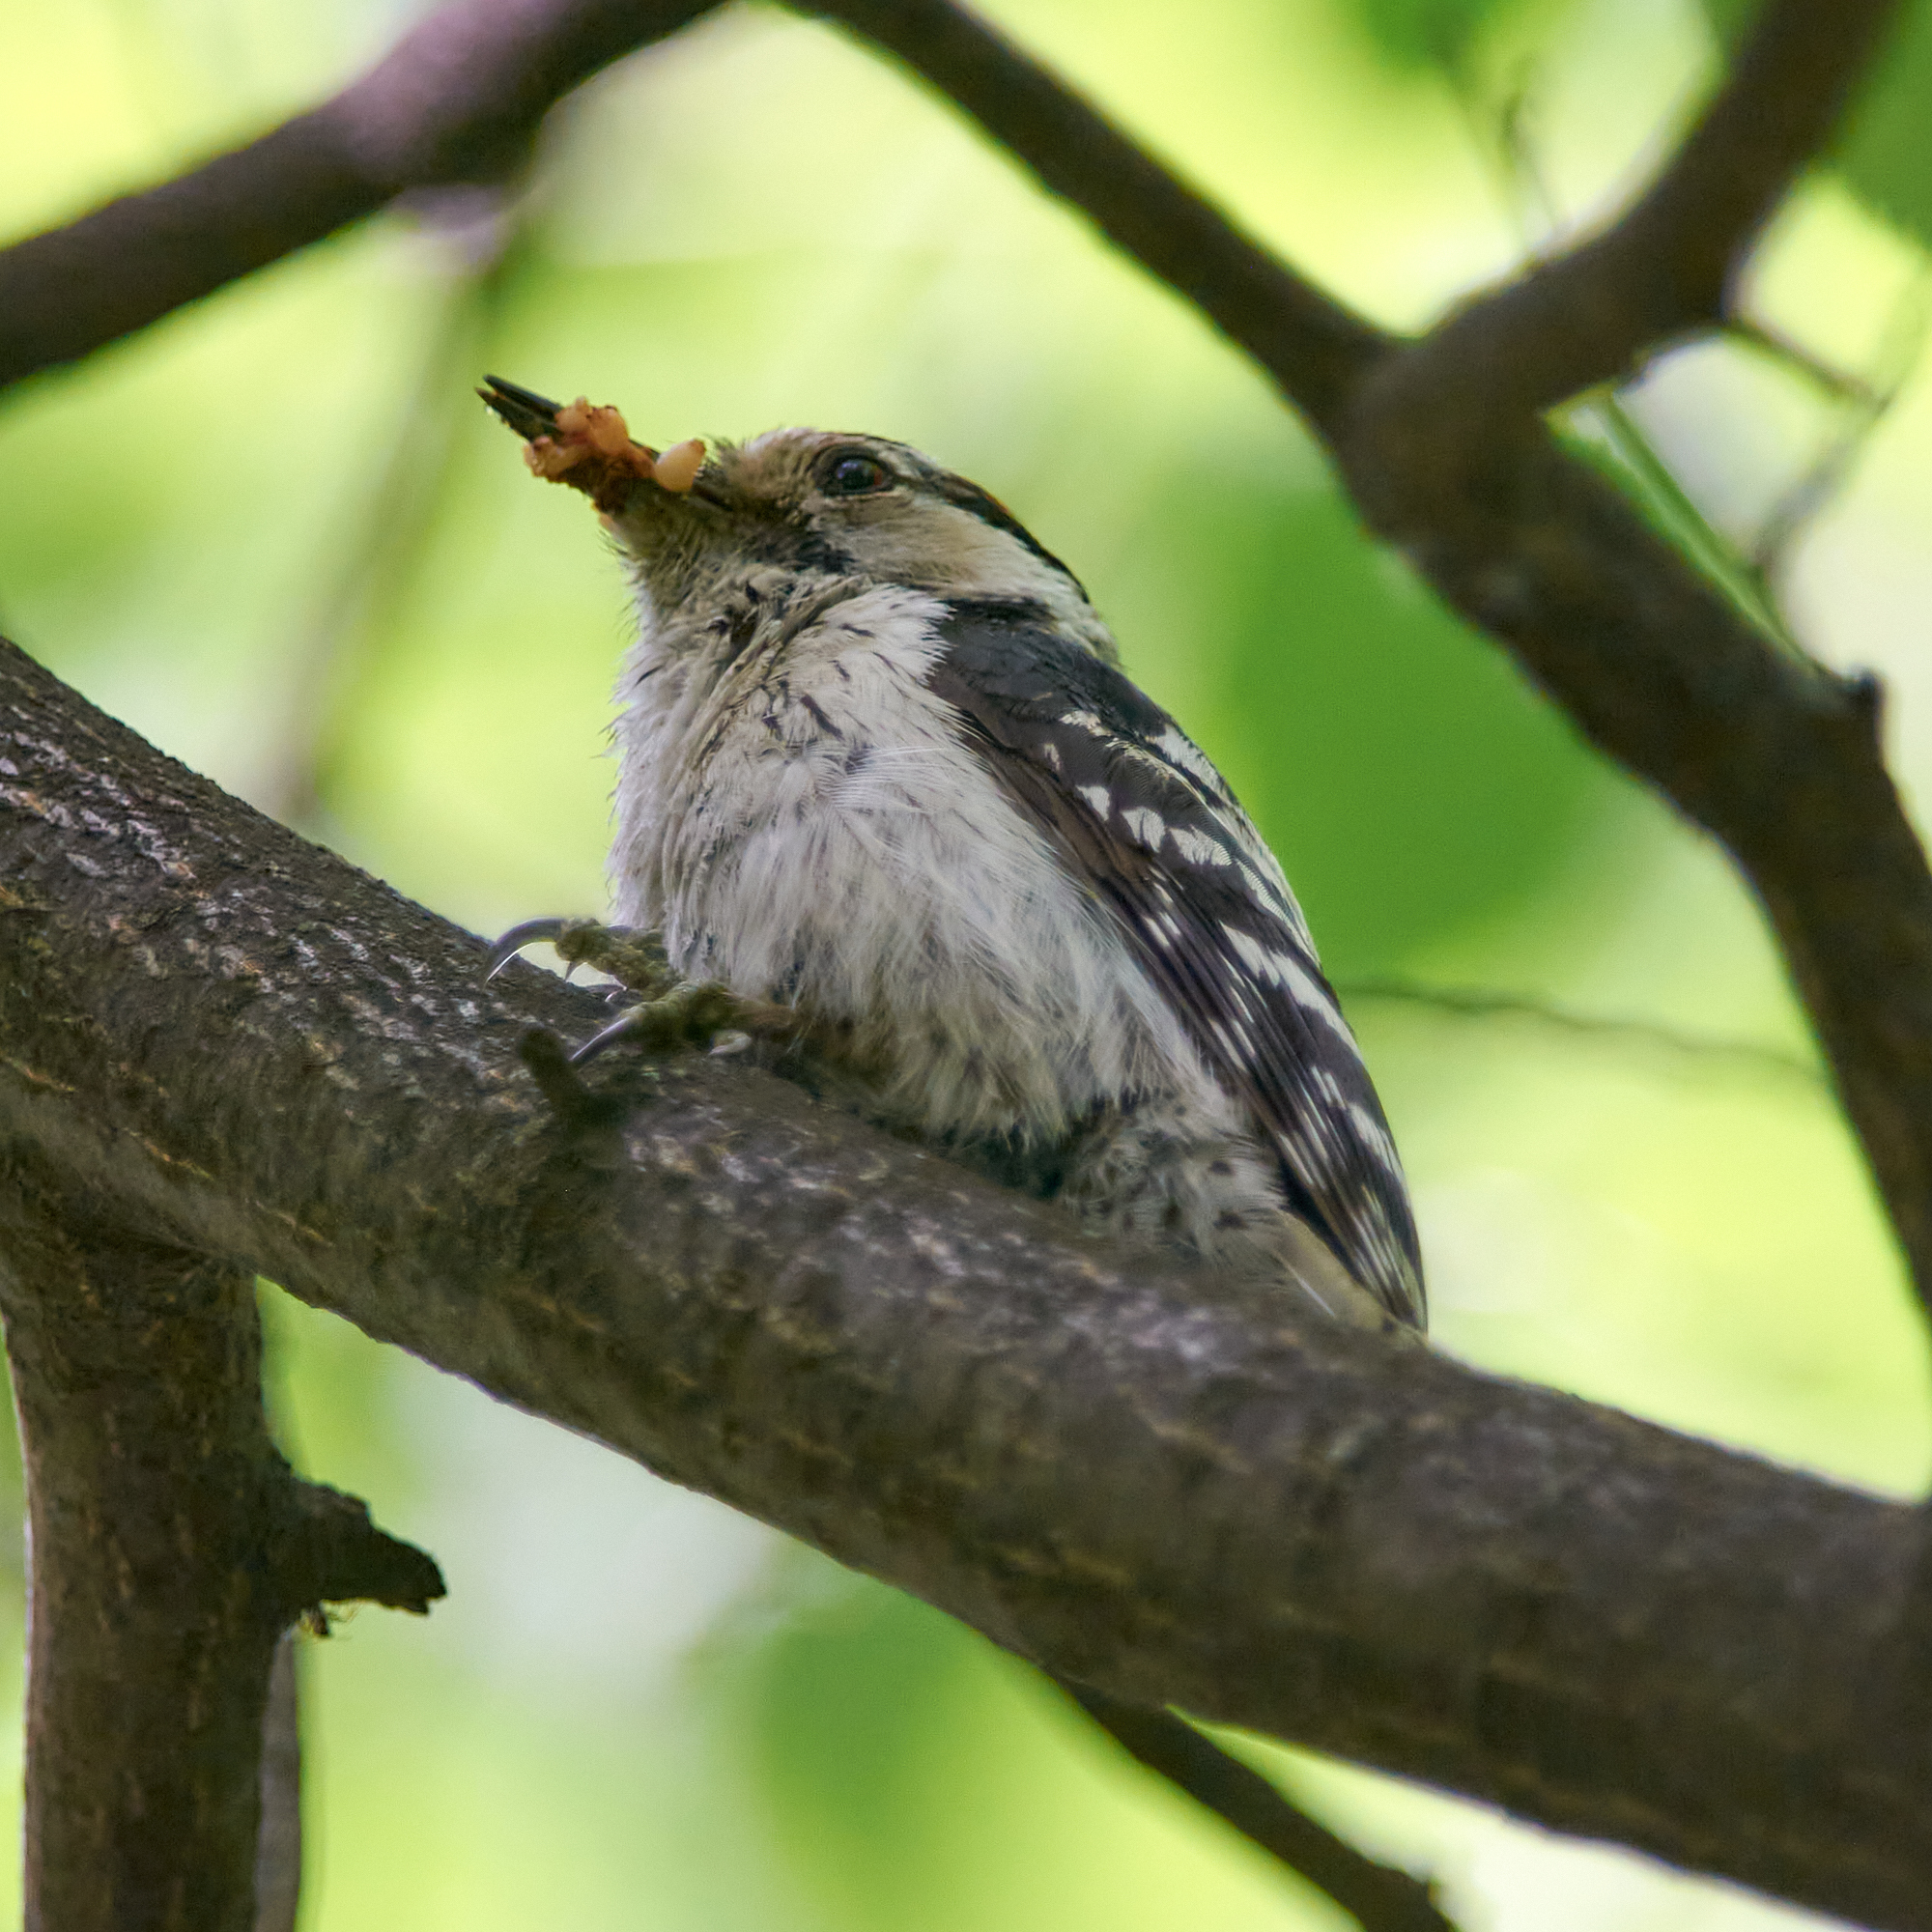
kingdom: Animalia
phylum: Chordata
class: Aves
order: Piciformes
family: Picidae
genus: Dryobates
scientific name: Dryobates minor
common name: Lesser spotted woodpecker
